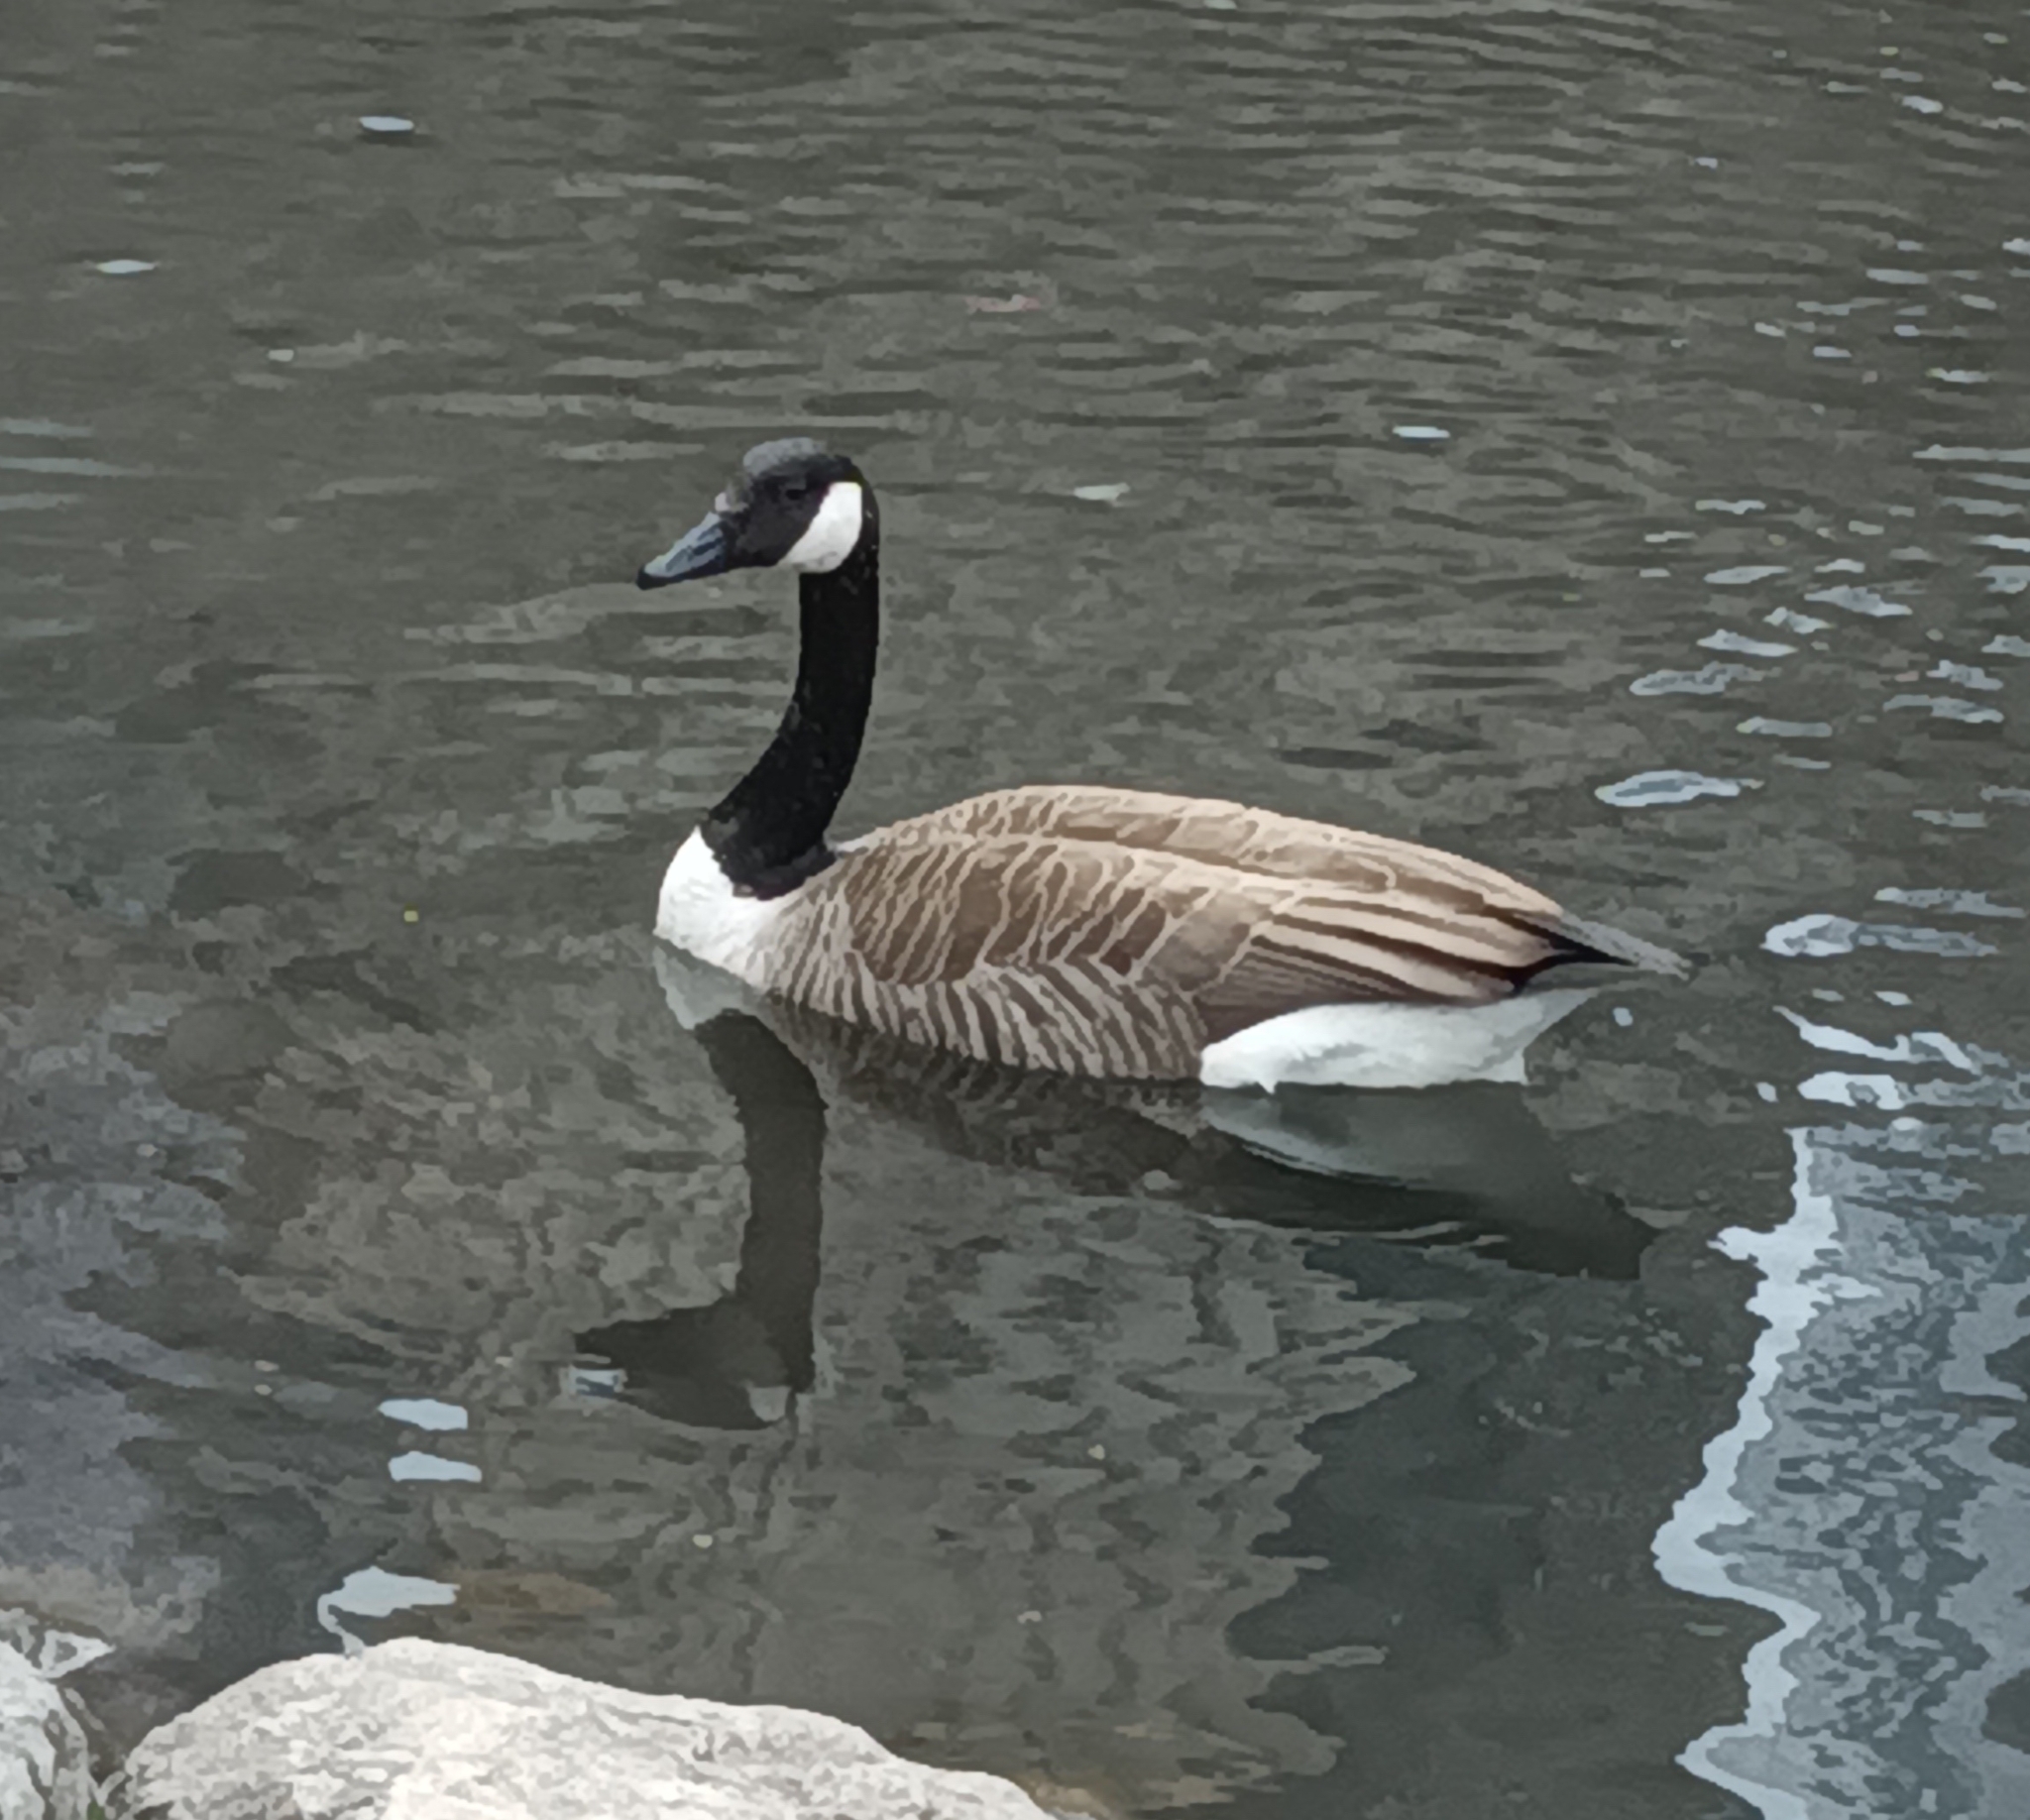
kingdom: Animalia
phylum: Chordata
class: Aves
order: Anseriformes
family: Anatidae
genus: Branta
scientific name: Branta canadensis
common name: Canada goose
